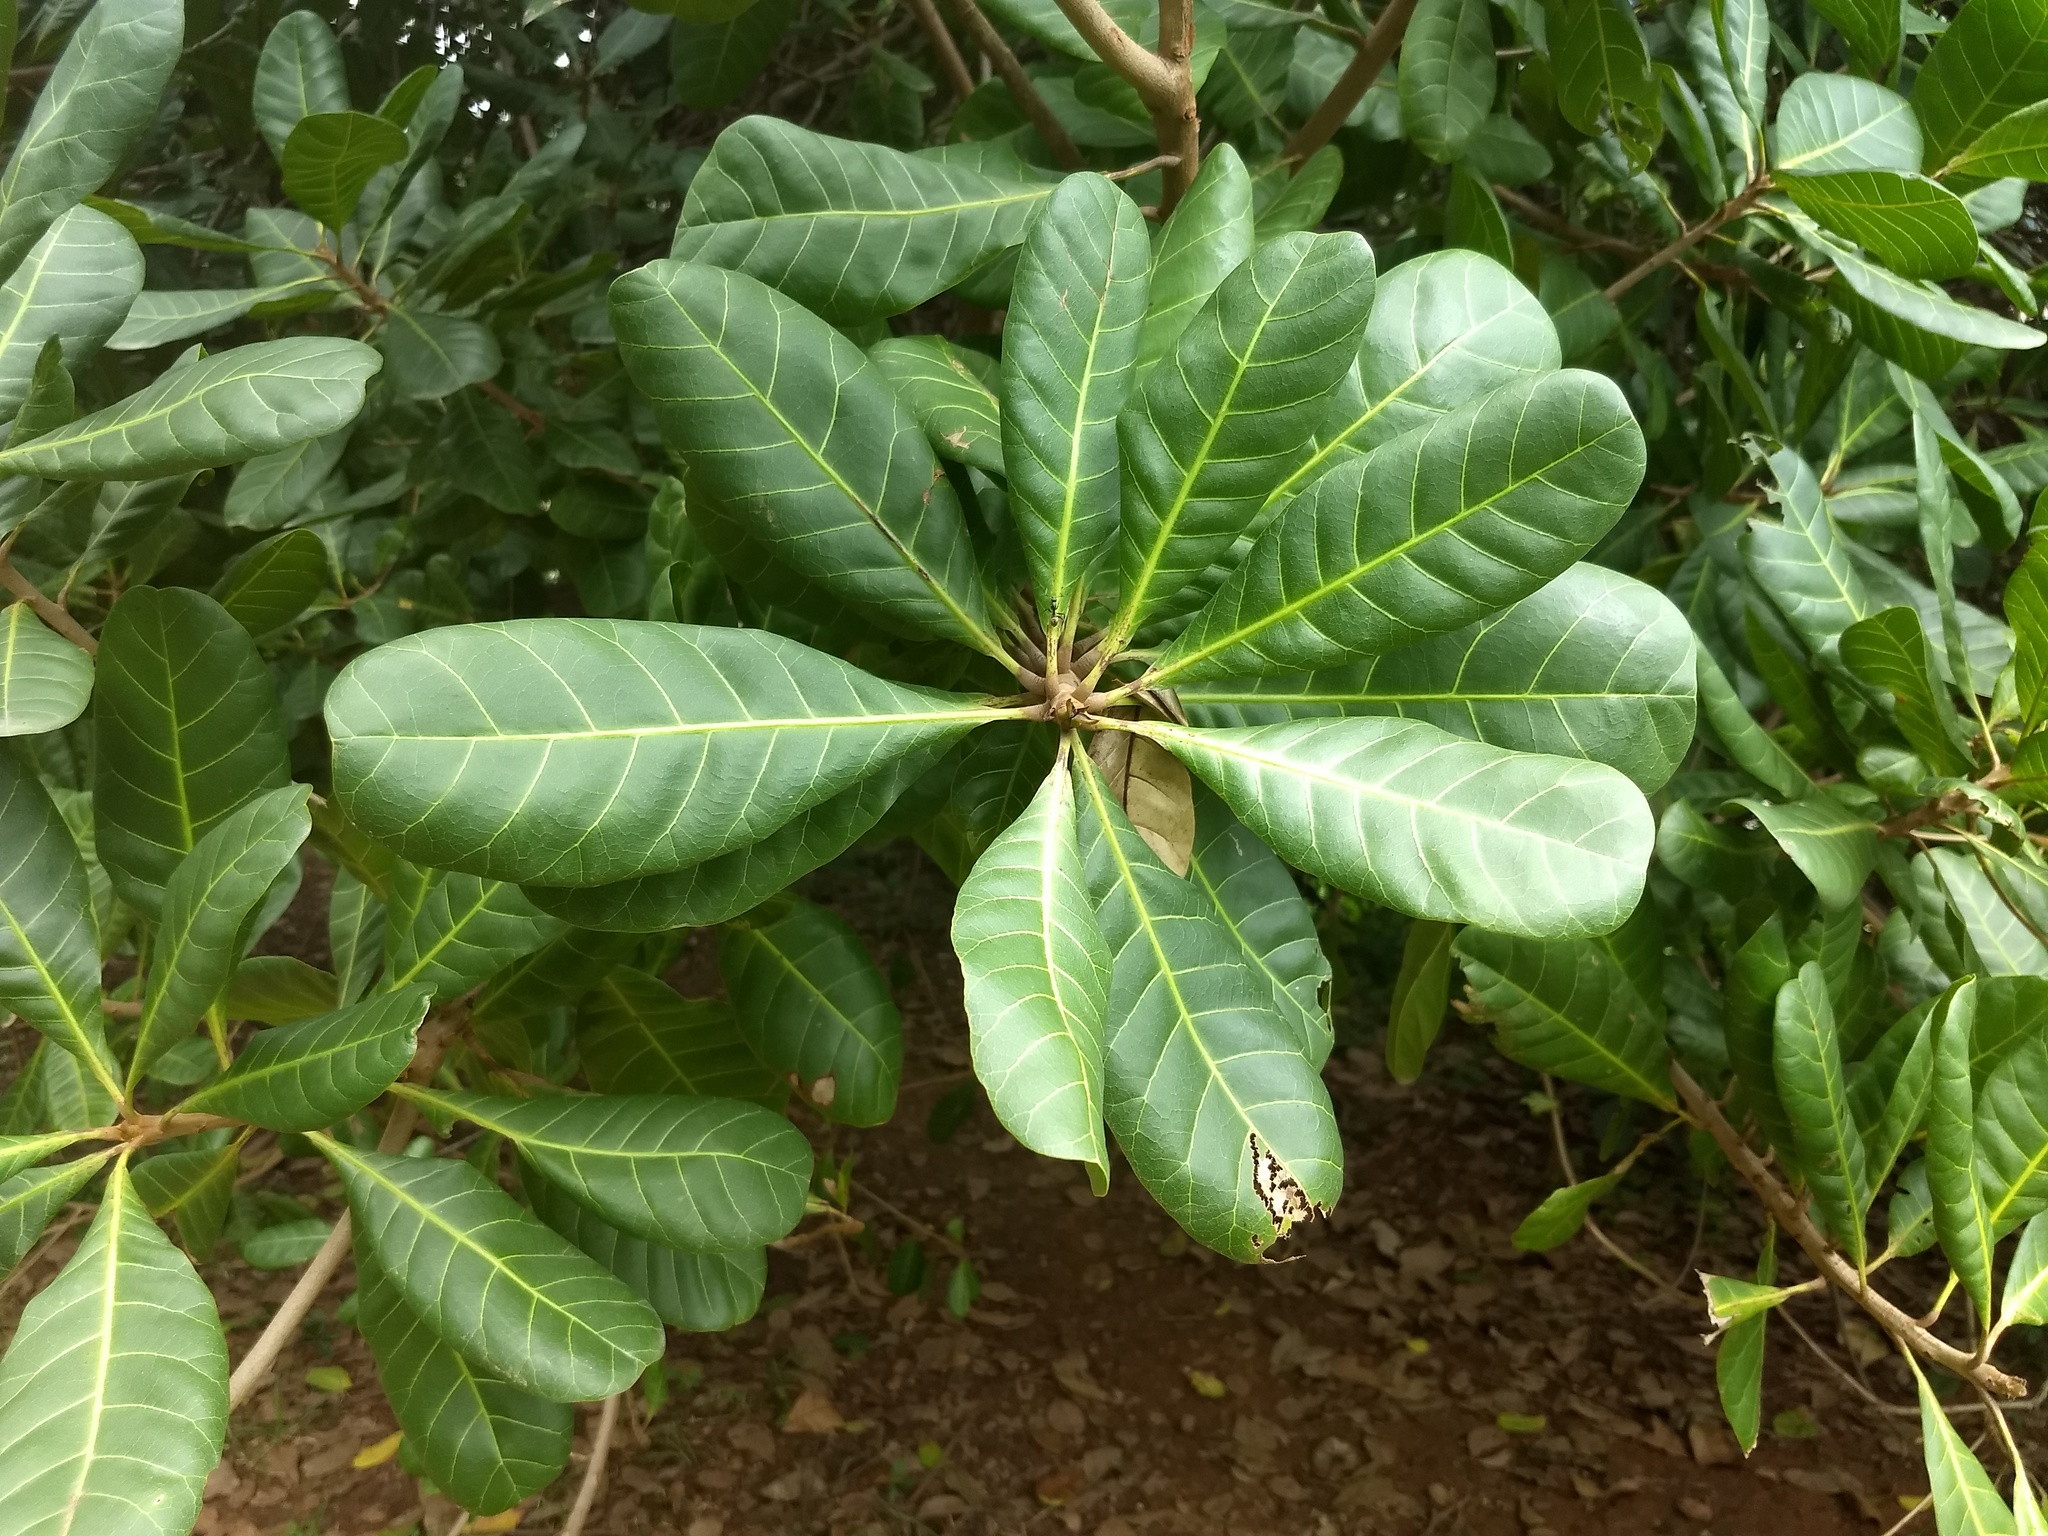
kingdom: Plantae
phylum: Tracheophyta
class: Magnoliopsida
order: Sapindales
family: Anacardiaceae
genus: Anacardium
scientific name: Anacardium occidentale
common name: Cashew
